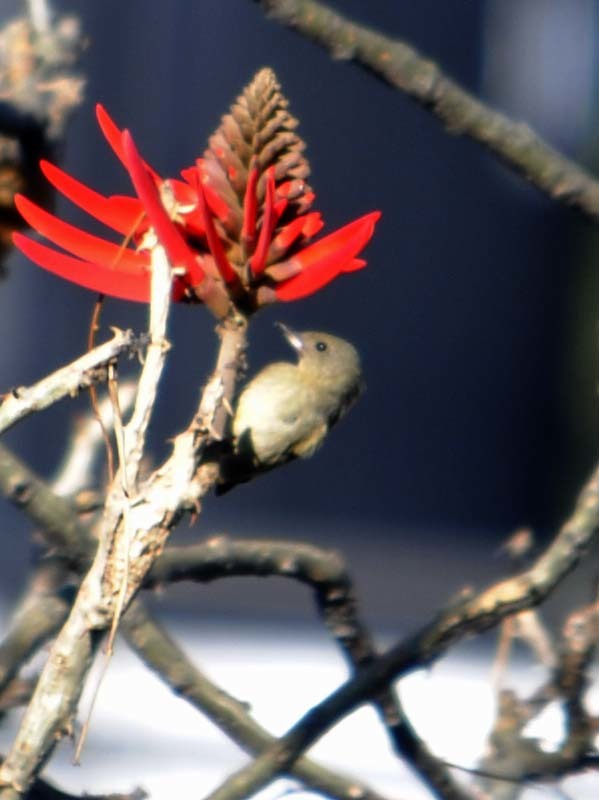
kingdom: Animalia
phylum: Chordata
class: Aves
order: Passeriformes
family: Thraupidae
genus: Diglossa
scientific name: Diglossa baritula
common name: Cinnamon-bellied flowerpiercer
